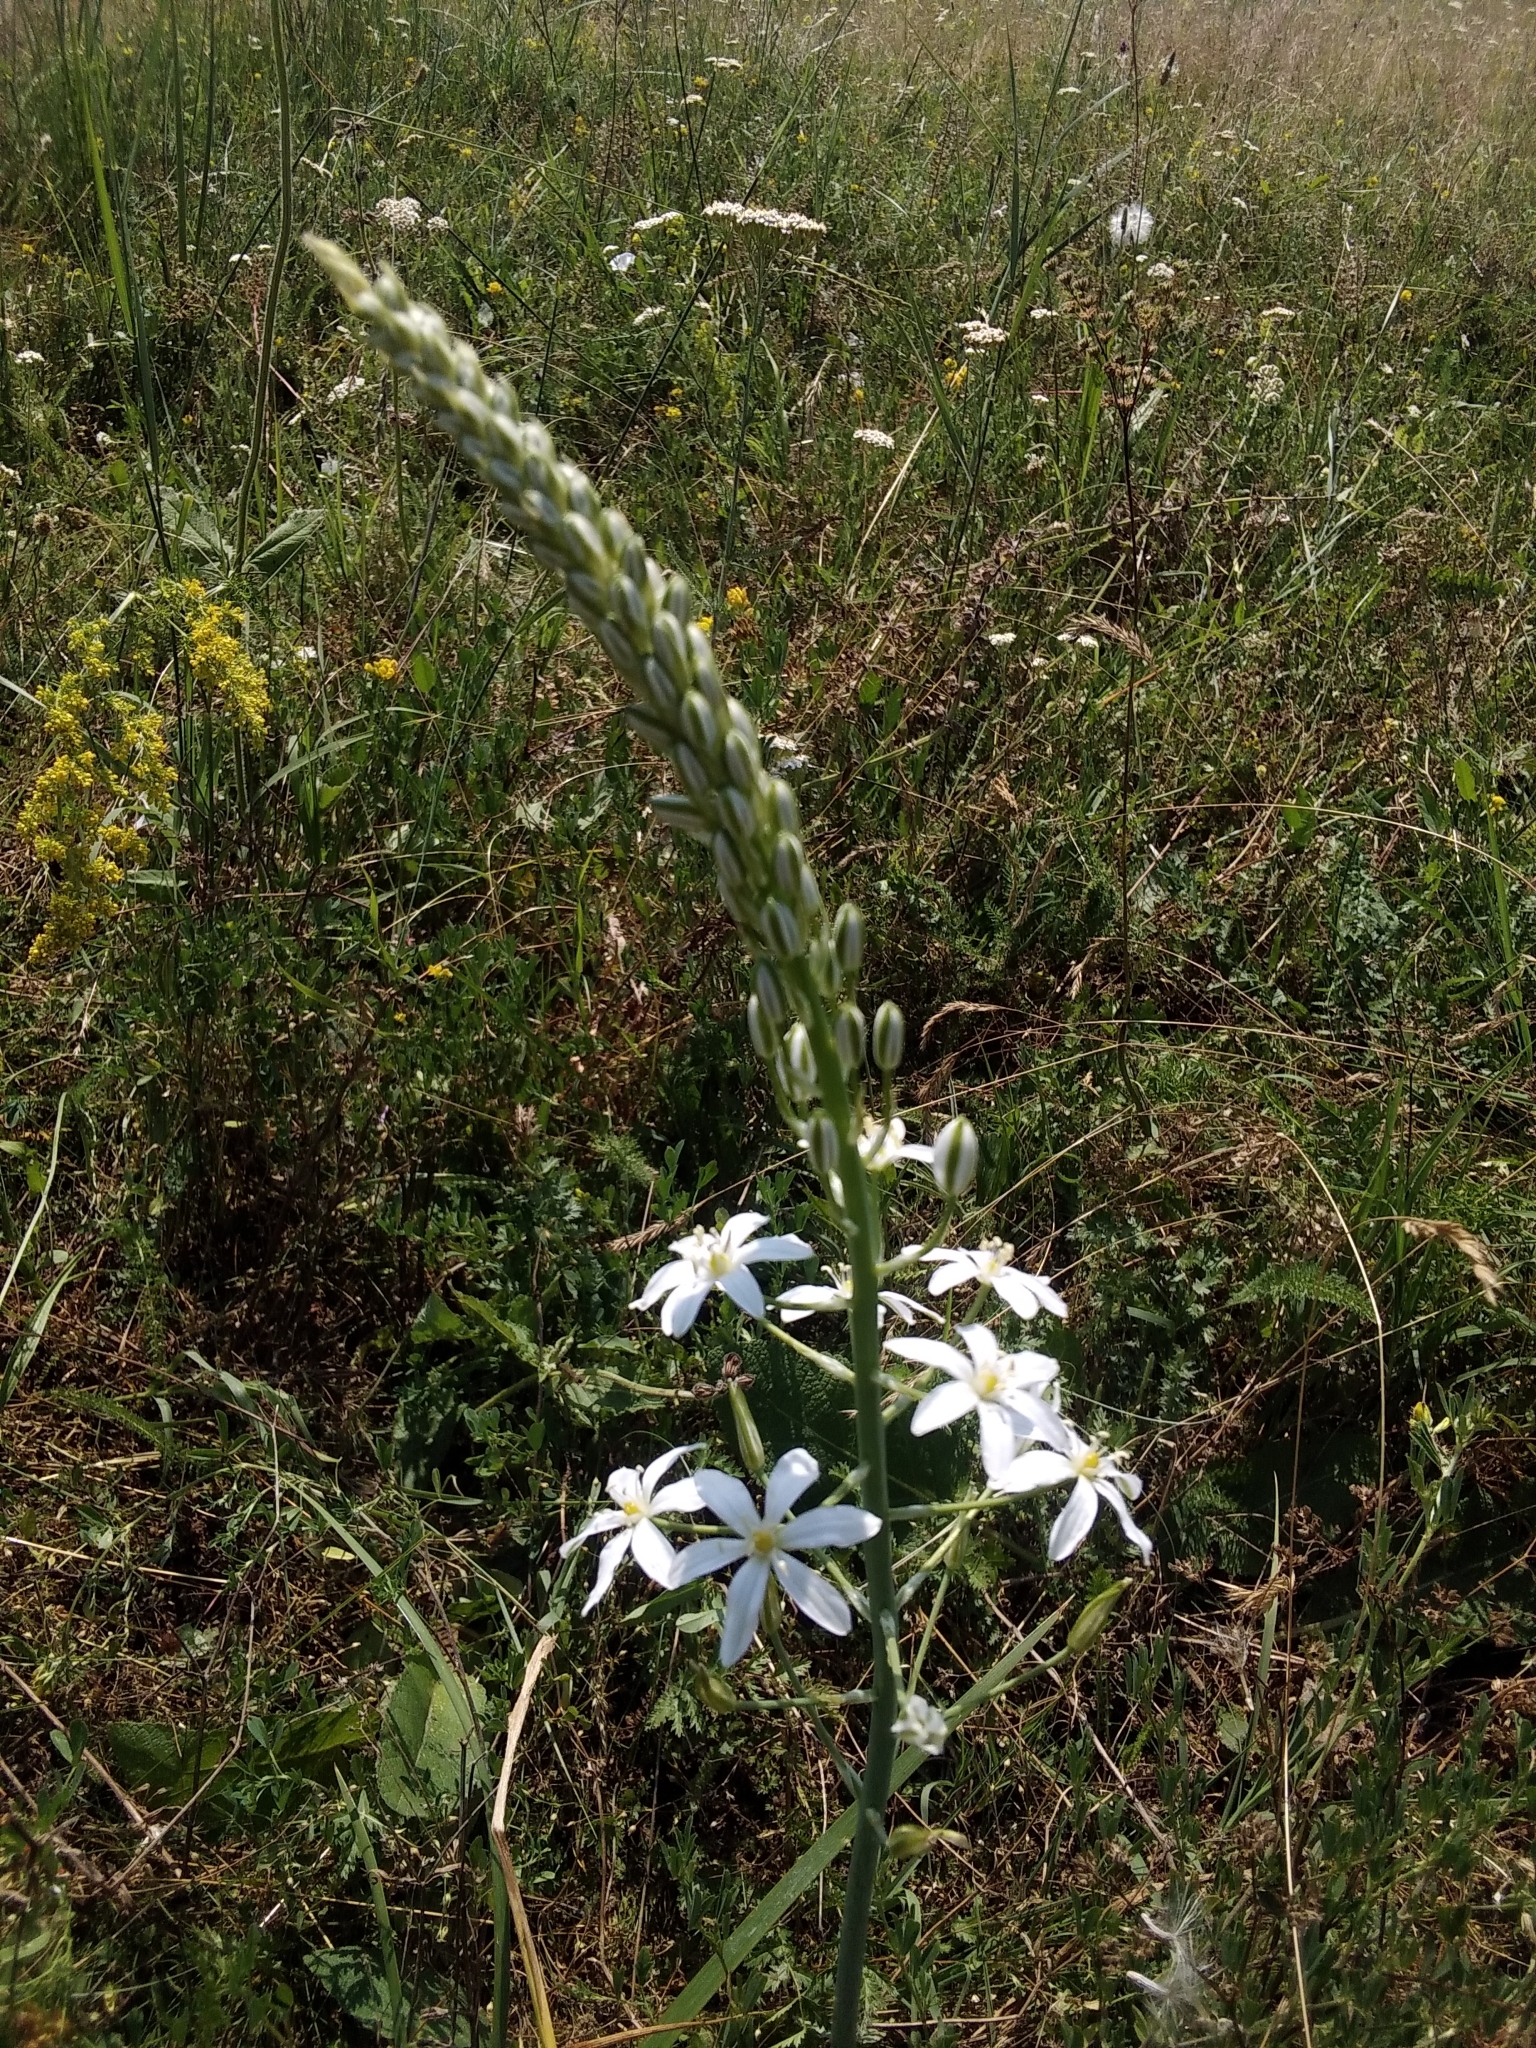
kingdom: Plantae
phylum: Tracheophyta
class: Liliopsida
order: Asparagales
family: Asparagaceae
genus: Ornithogalum
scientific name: Ornithogalum pyramidale
